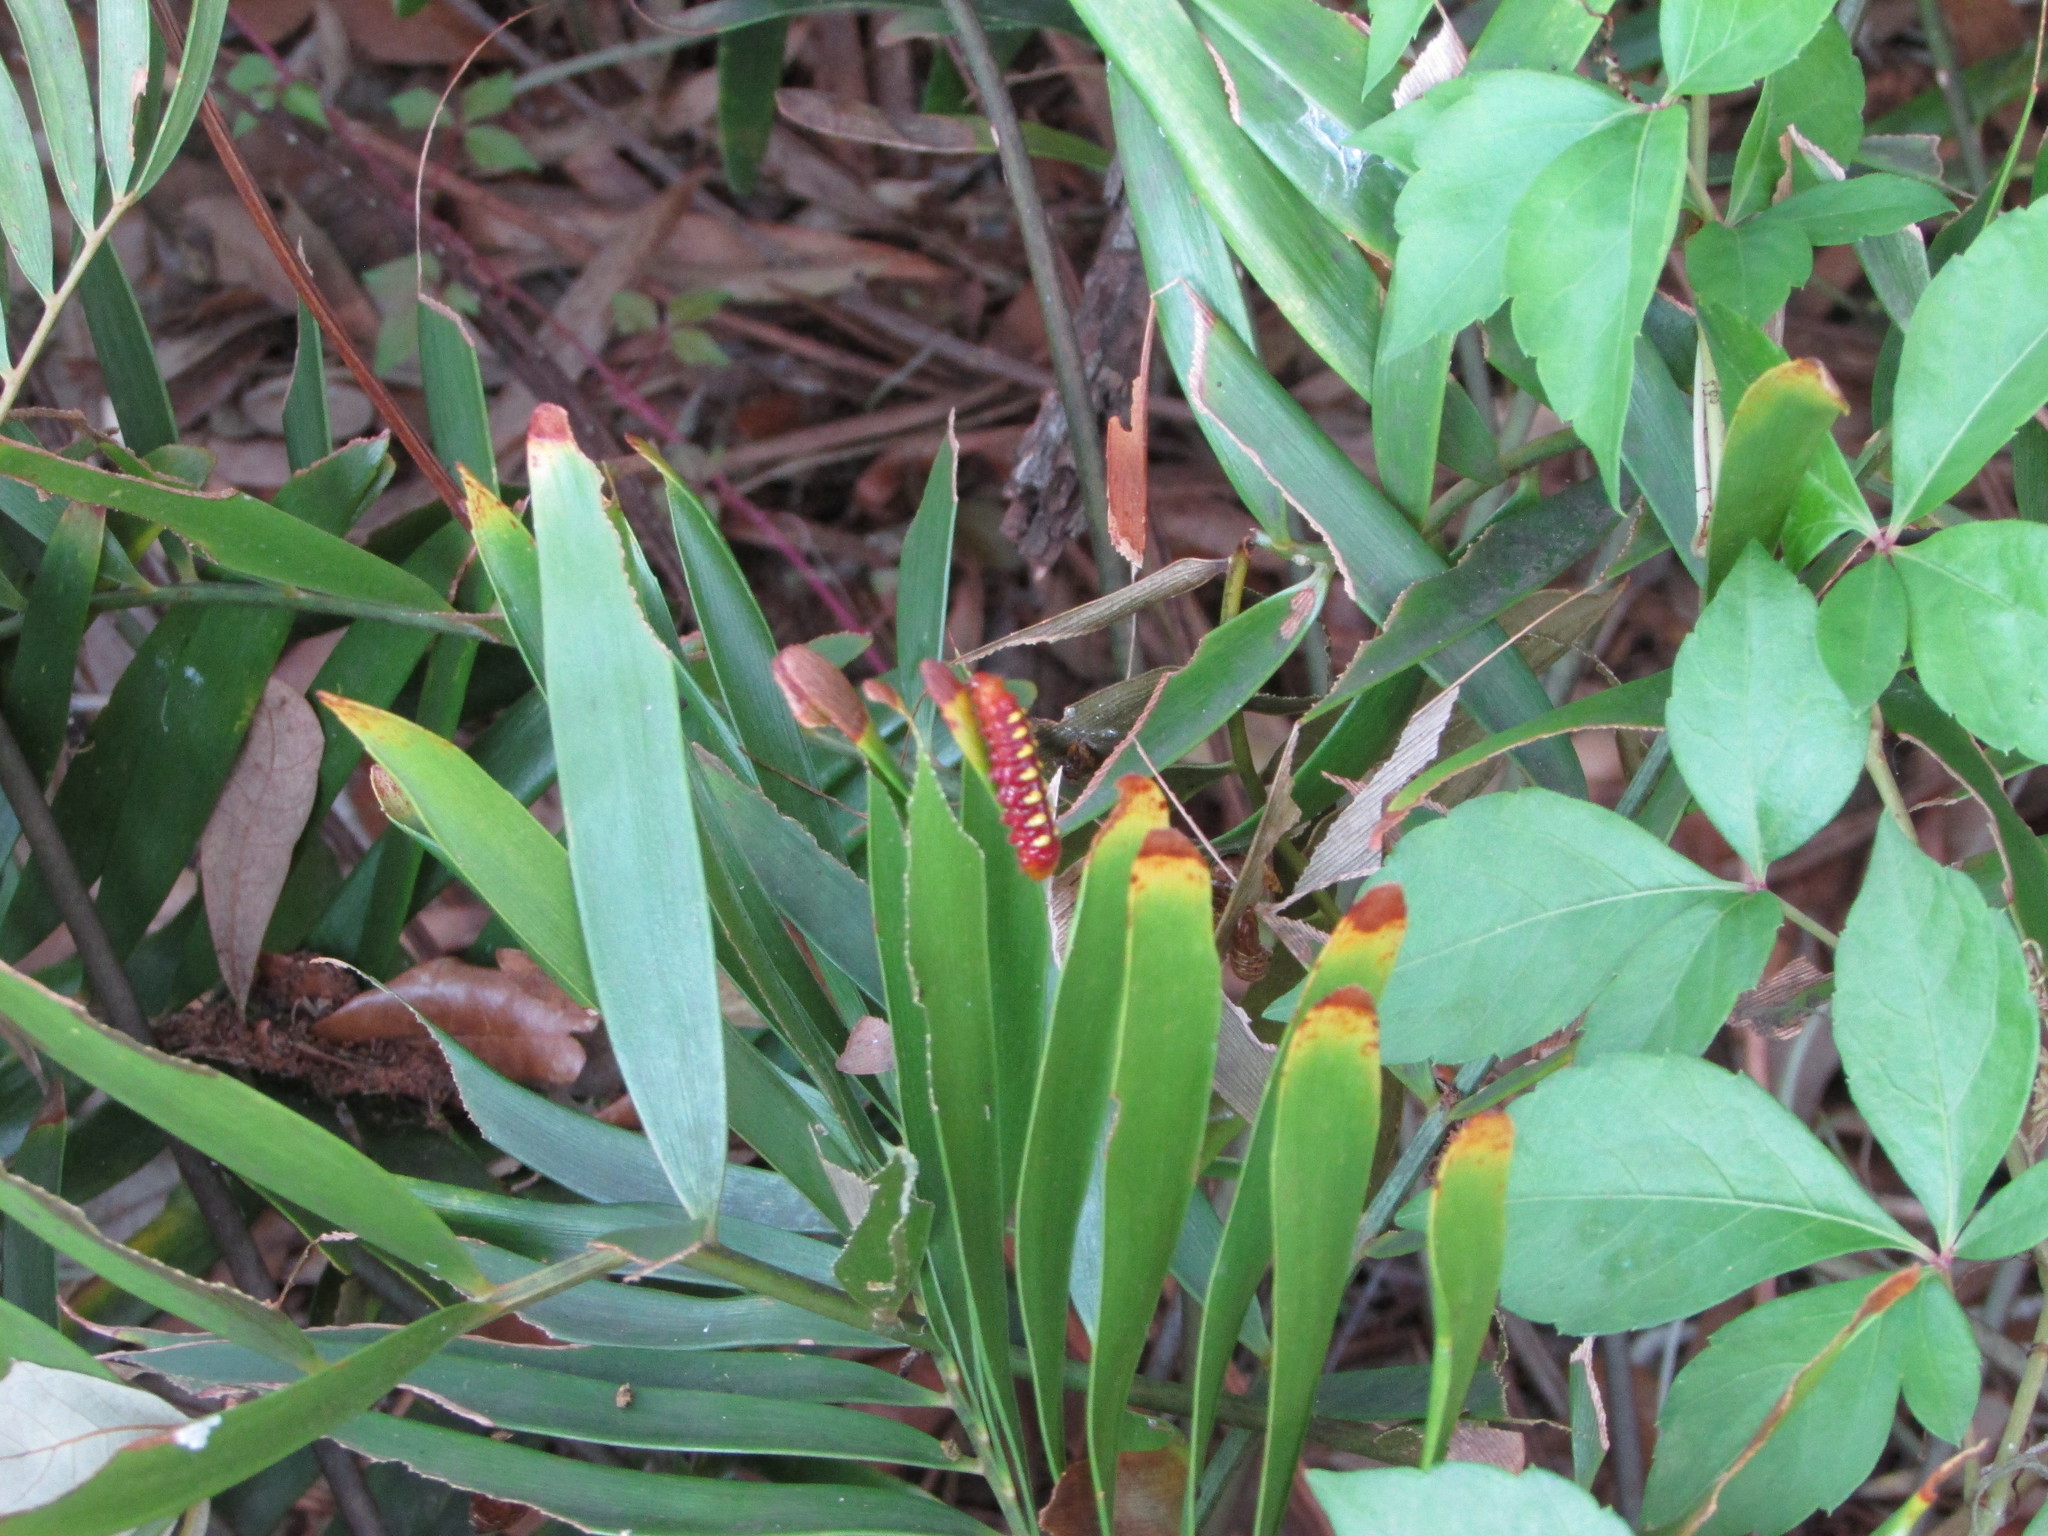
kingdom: Animalia
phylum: Arthropoda
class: Insecta
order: Lepidoptera
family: Lycaenidae
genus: Eumaeus
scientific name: Eumaeus atala
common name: Atala
